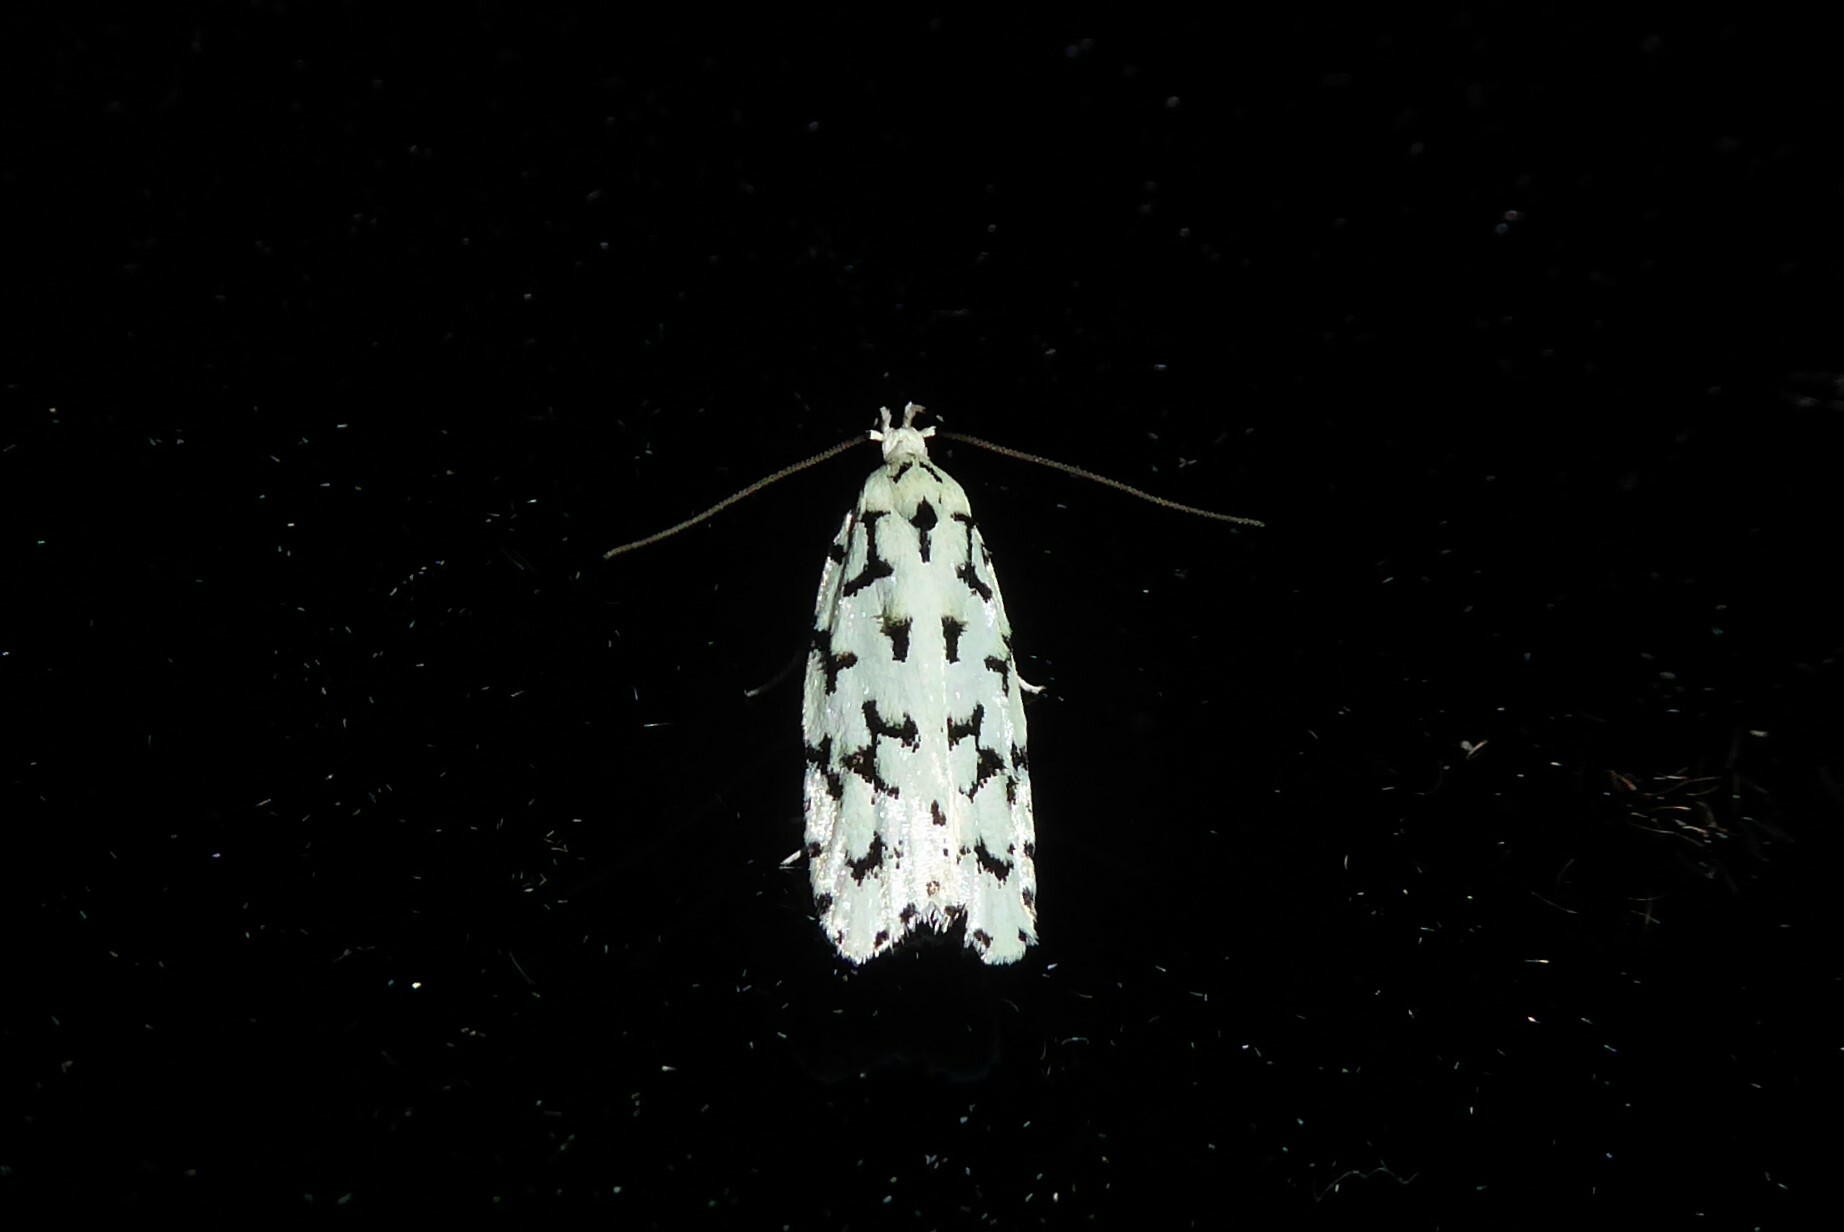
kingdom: Animalia
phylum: Arthropoda
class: Insecta
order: Lepidoptera
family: Oecophoridae
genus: Izatha
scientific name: Izatha huttoni
